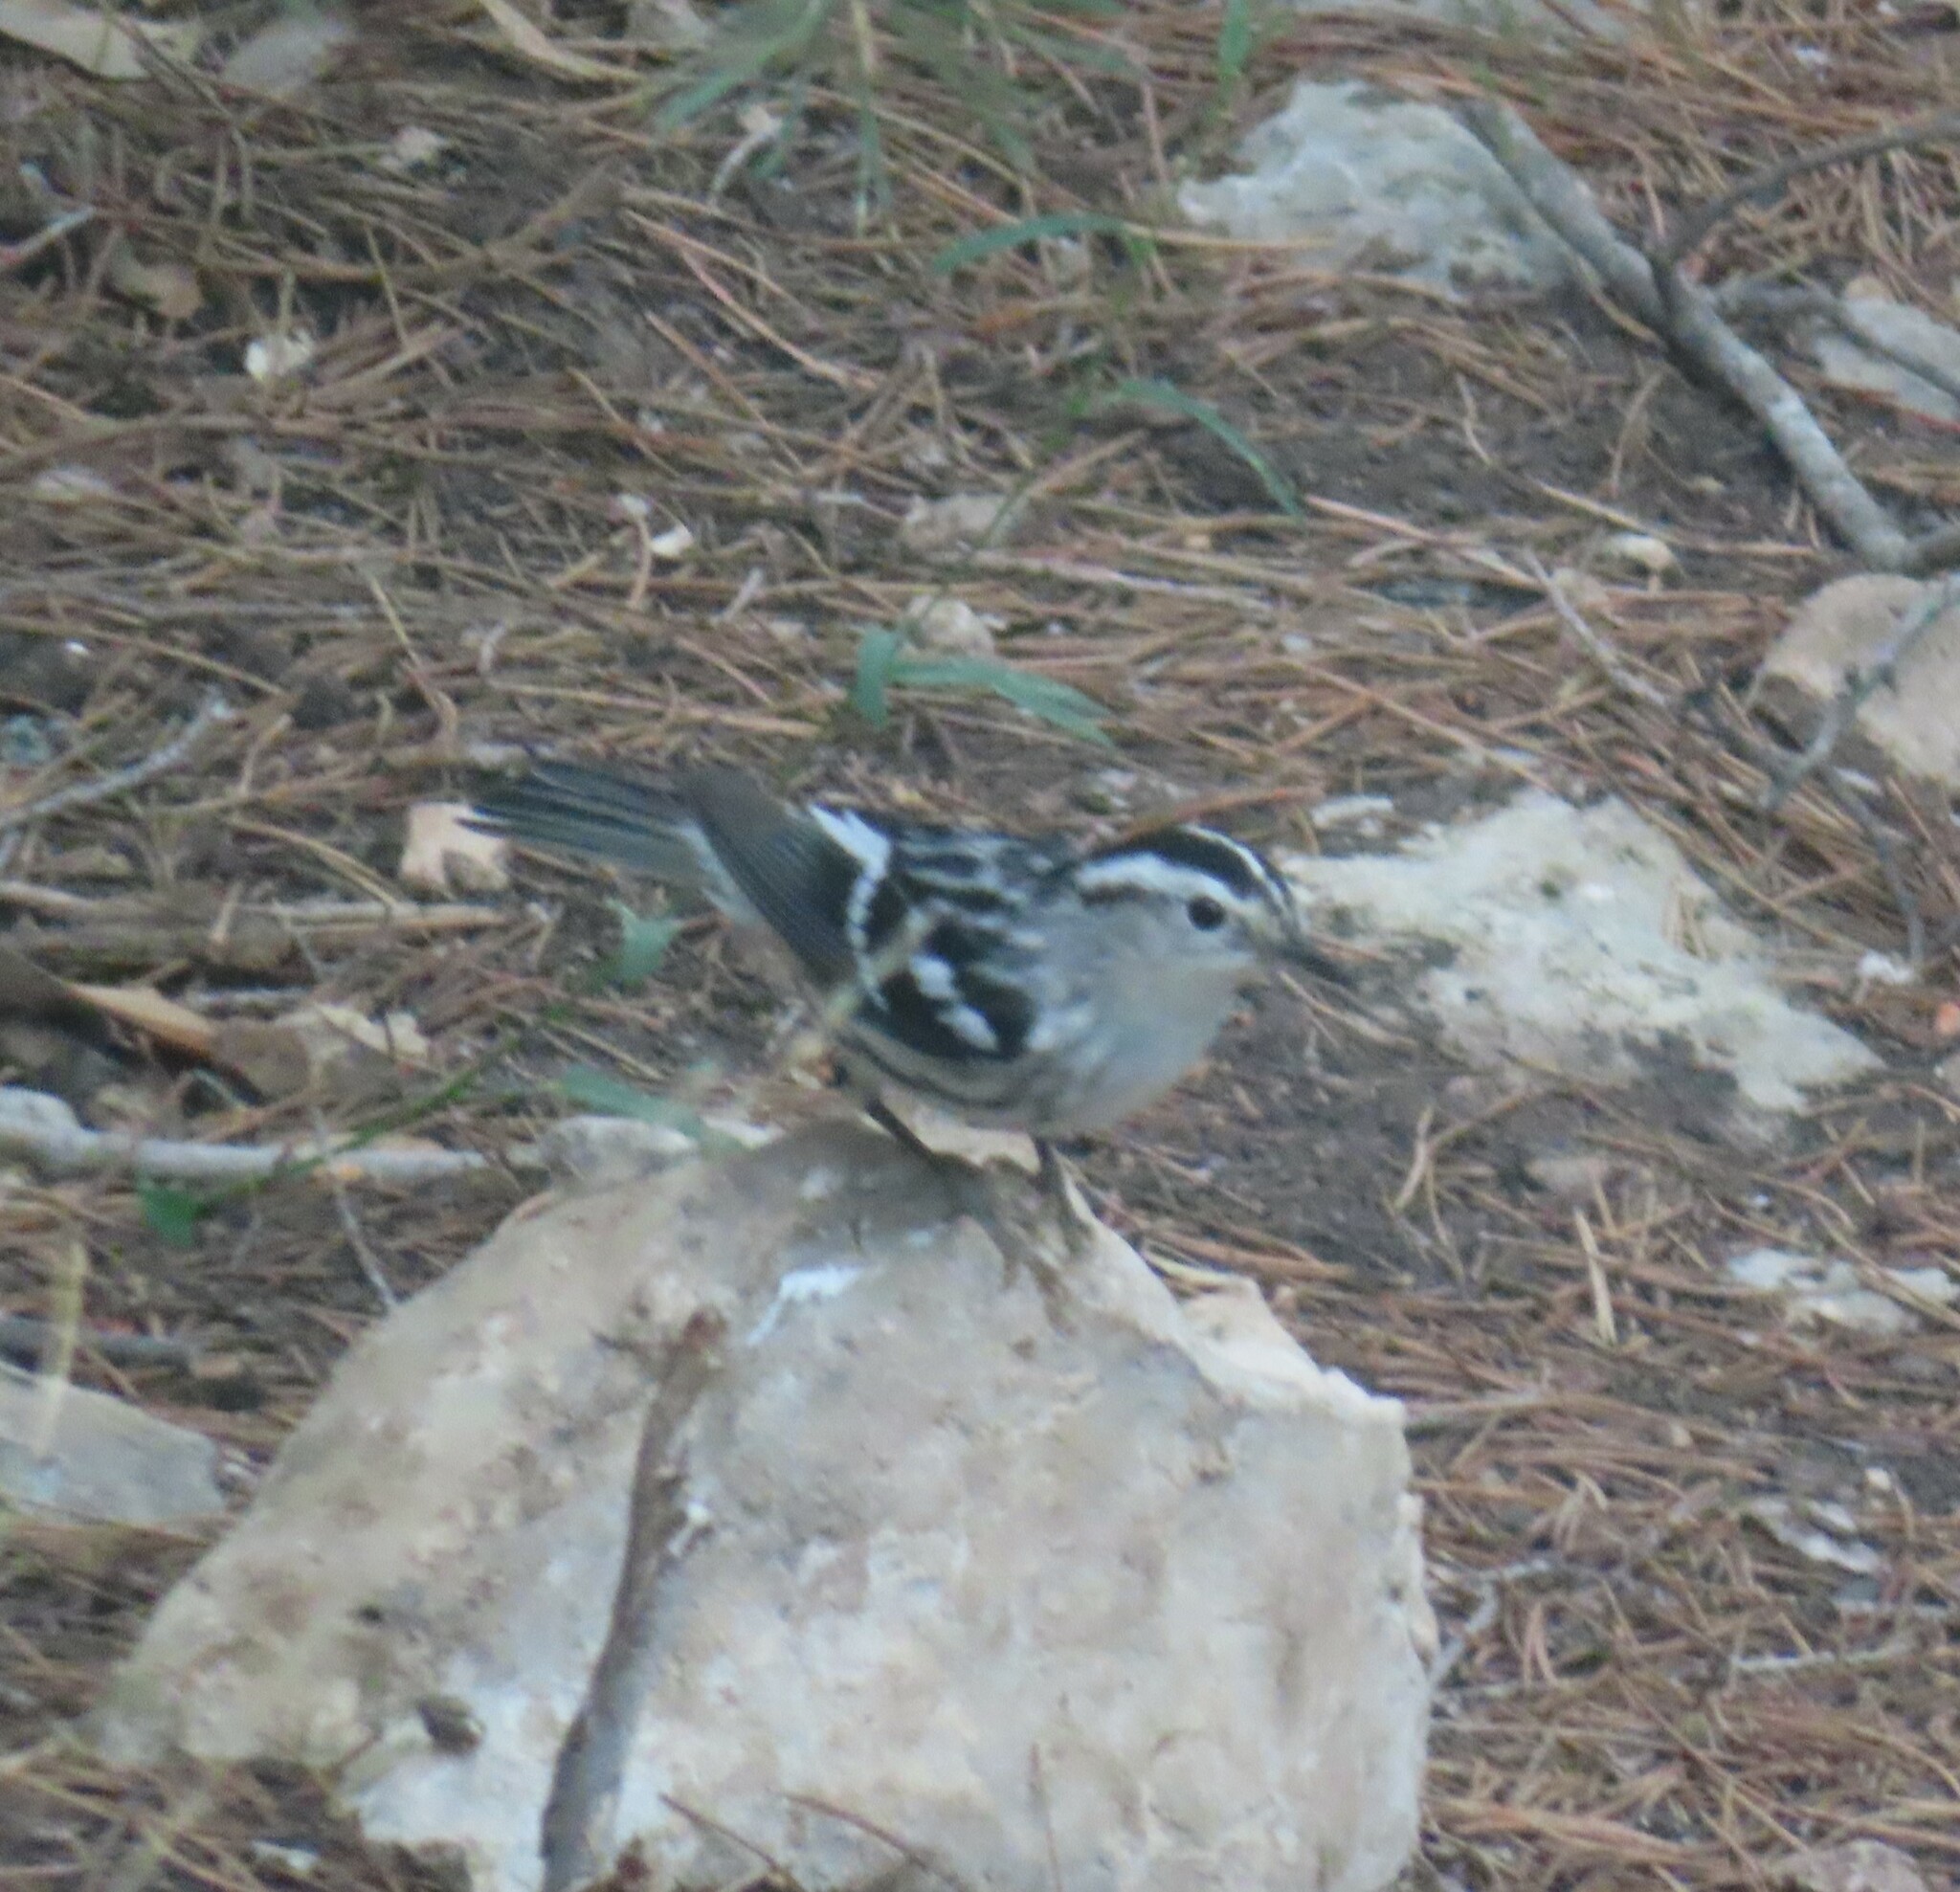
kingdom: Animalia
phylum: Chordata
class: Aves
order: Passeriformes
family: Parulidae
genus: Mniotilta
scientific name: Mniotilta varia
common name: Black-and-white warbler
